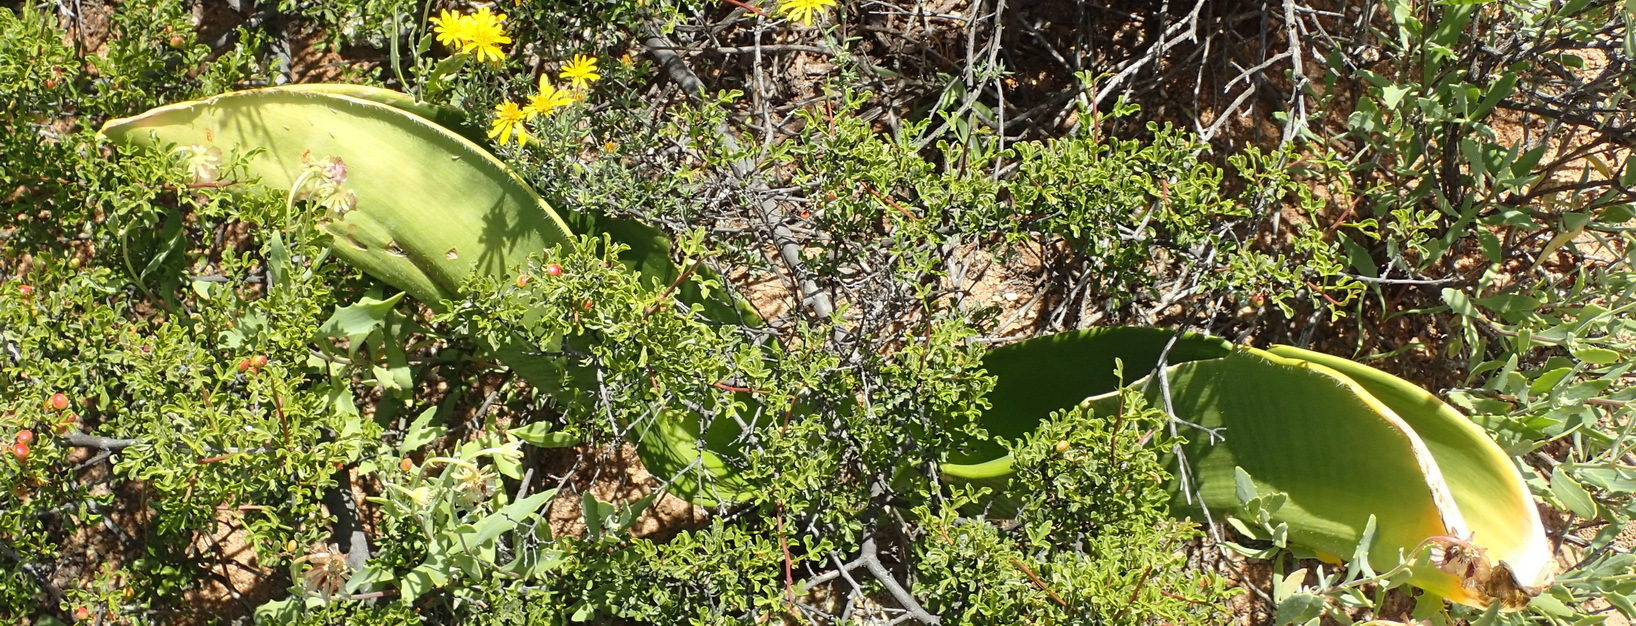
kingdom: Plantae
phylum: Tracheophyta
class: Liliopsida
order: Asparagales
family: Amaryllidaceae
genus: Haemanthus
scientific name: Haemanthus coccineus
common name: Cape-tulip
